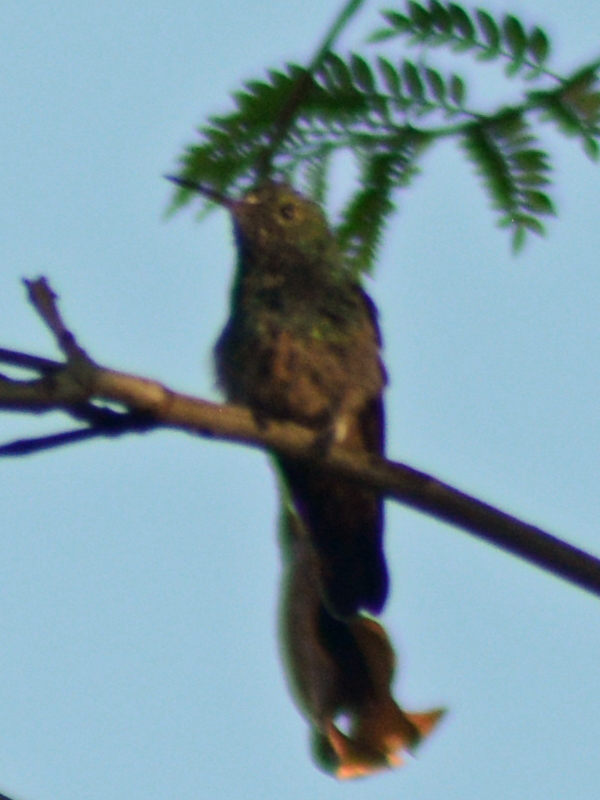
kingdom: Animalia
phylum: Chordata
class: Aves
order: Apodiformes
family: Trochilidae
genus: Saucerottia
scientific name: Saucerottia beryllina
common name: Berylline hummingbird
